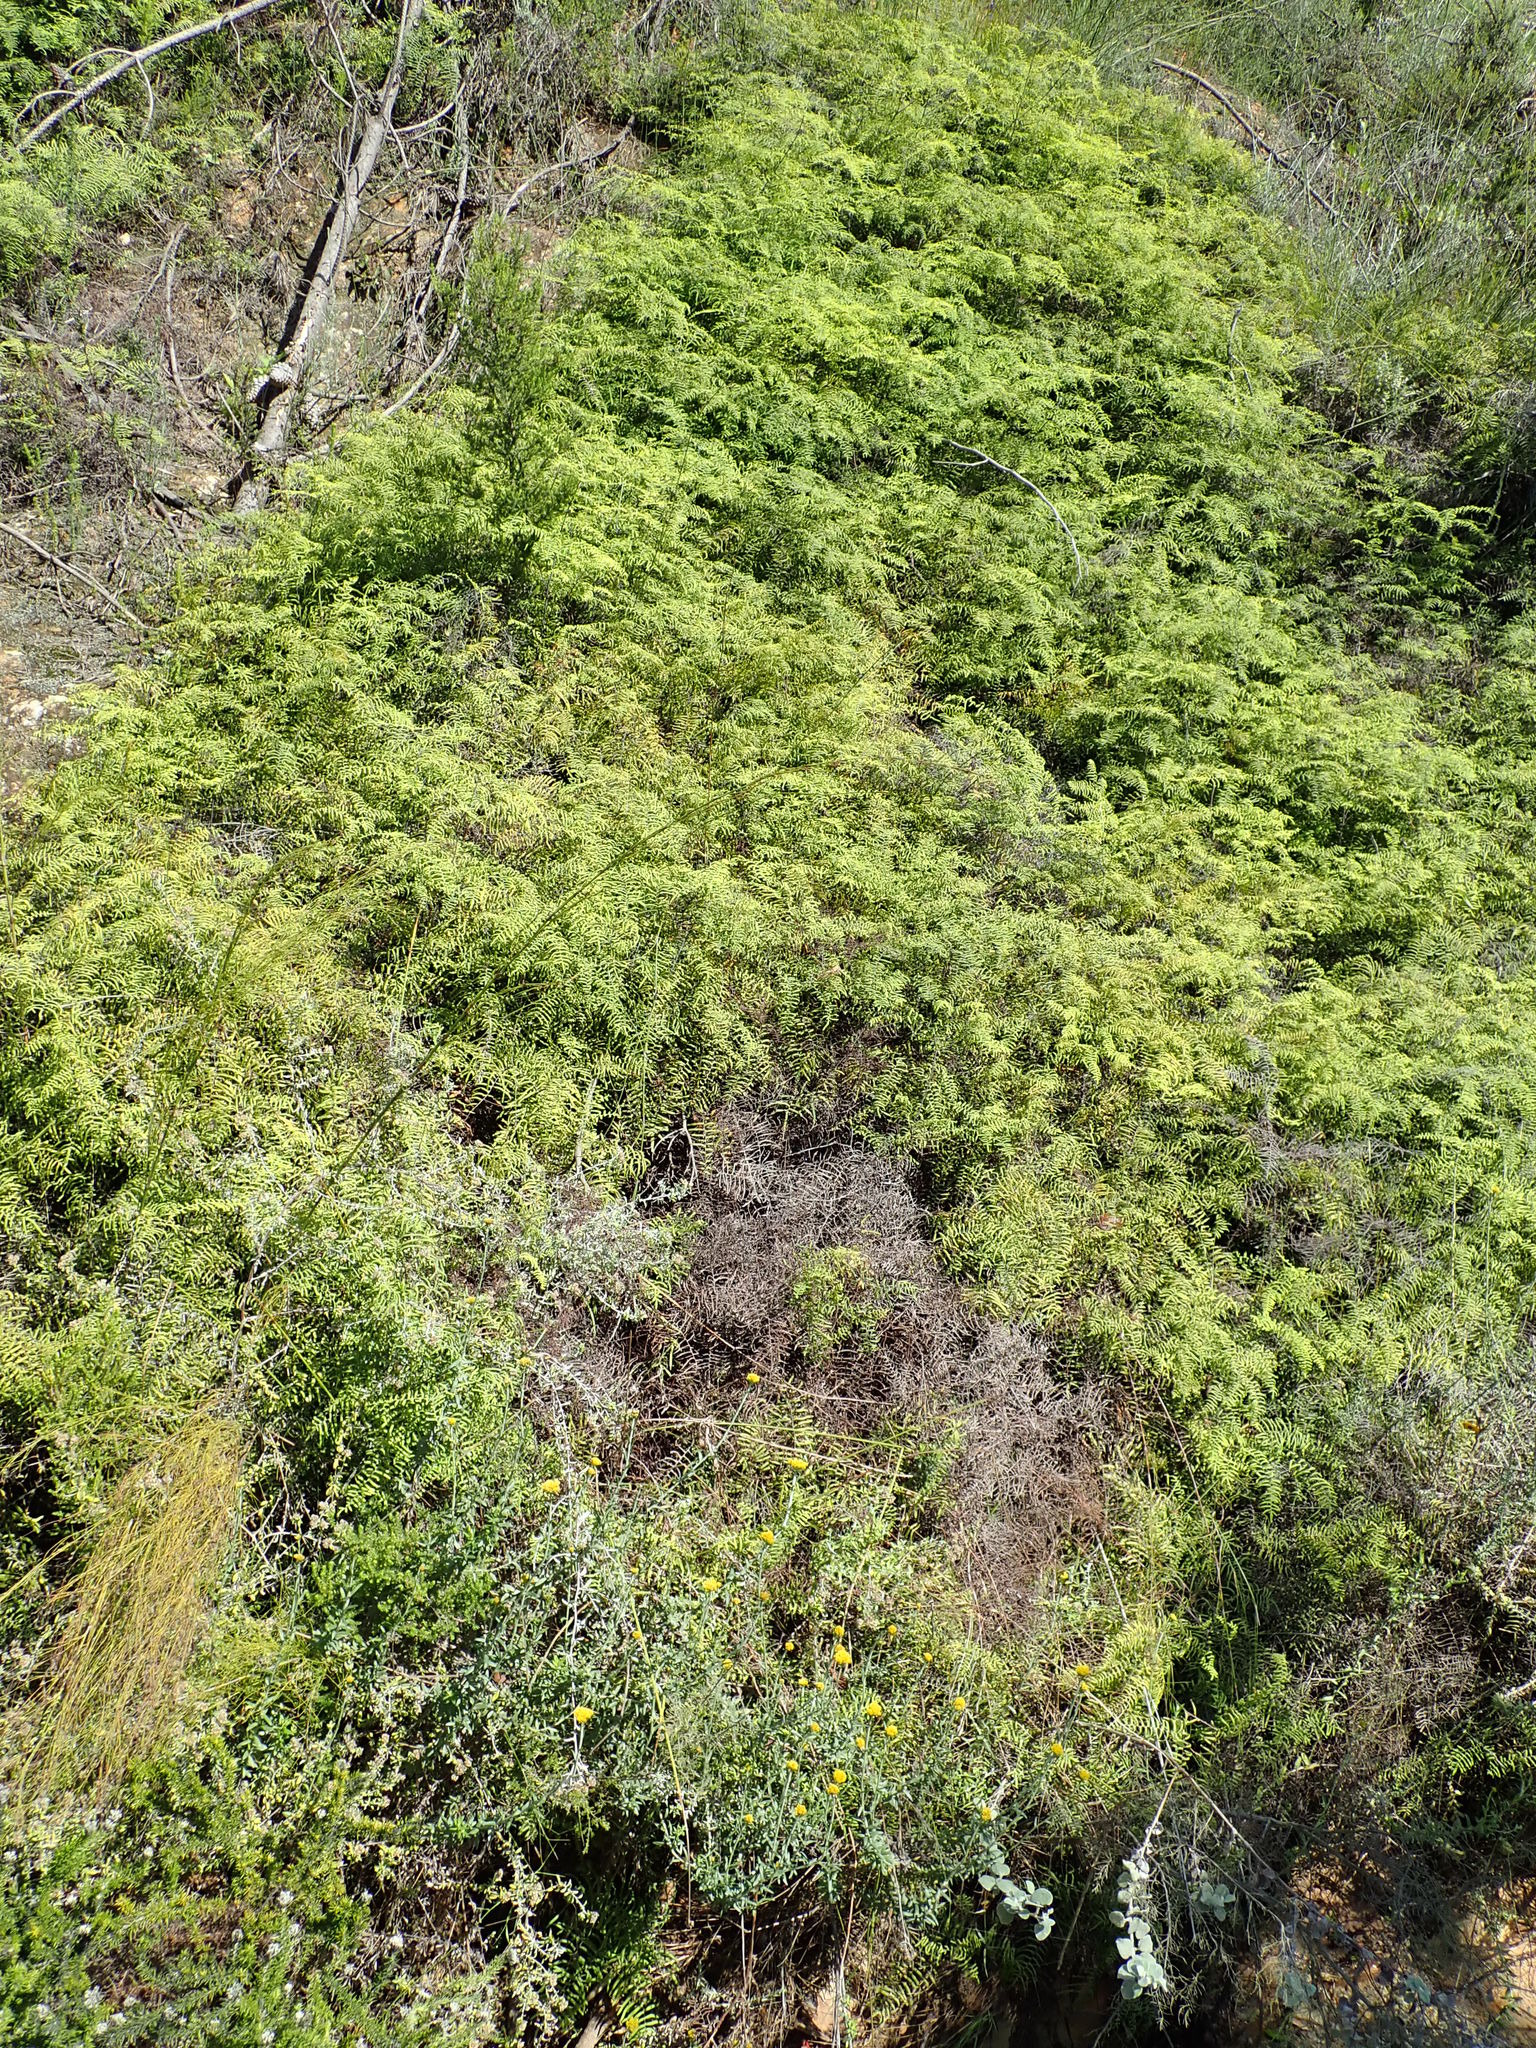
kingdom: Plantae
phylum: Tracheophyta
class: Polypodiopsida
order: Gleicheniales
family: Gleicheniaceae
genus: Gleichenia
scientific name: Gleichenia polypodioides
